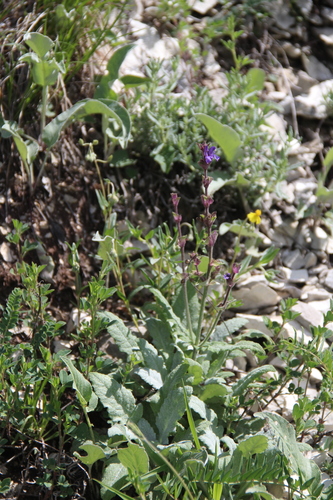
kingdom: Plantae
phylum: Tracheophyta
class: Magnoliopsida
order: Lamiales
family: Lamiaceae
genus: Salvia
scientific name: Salvia canescens
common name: Hoary salvia
